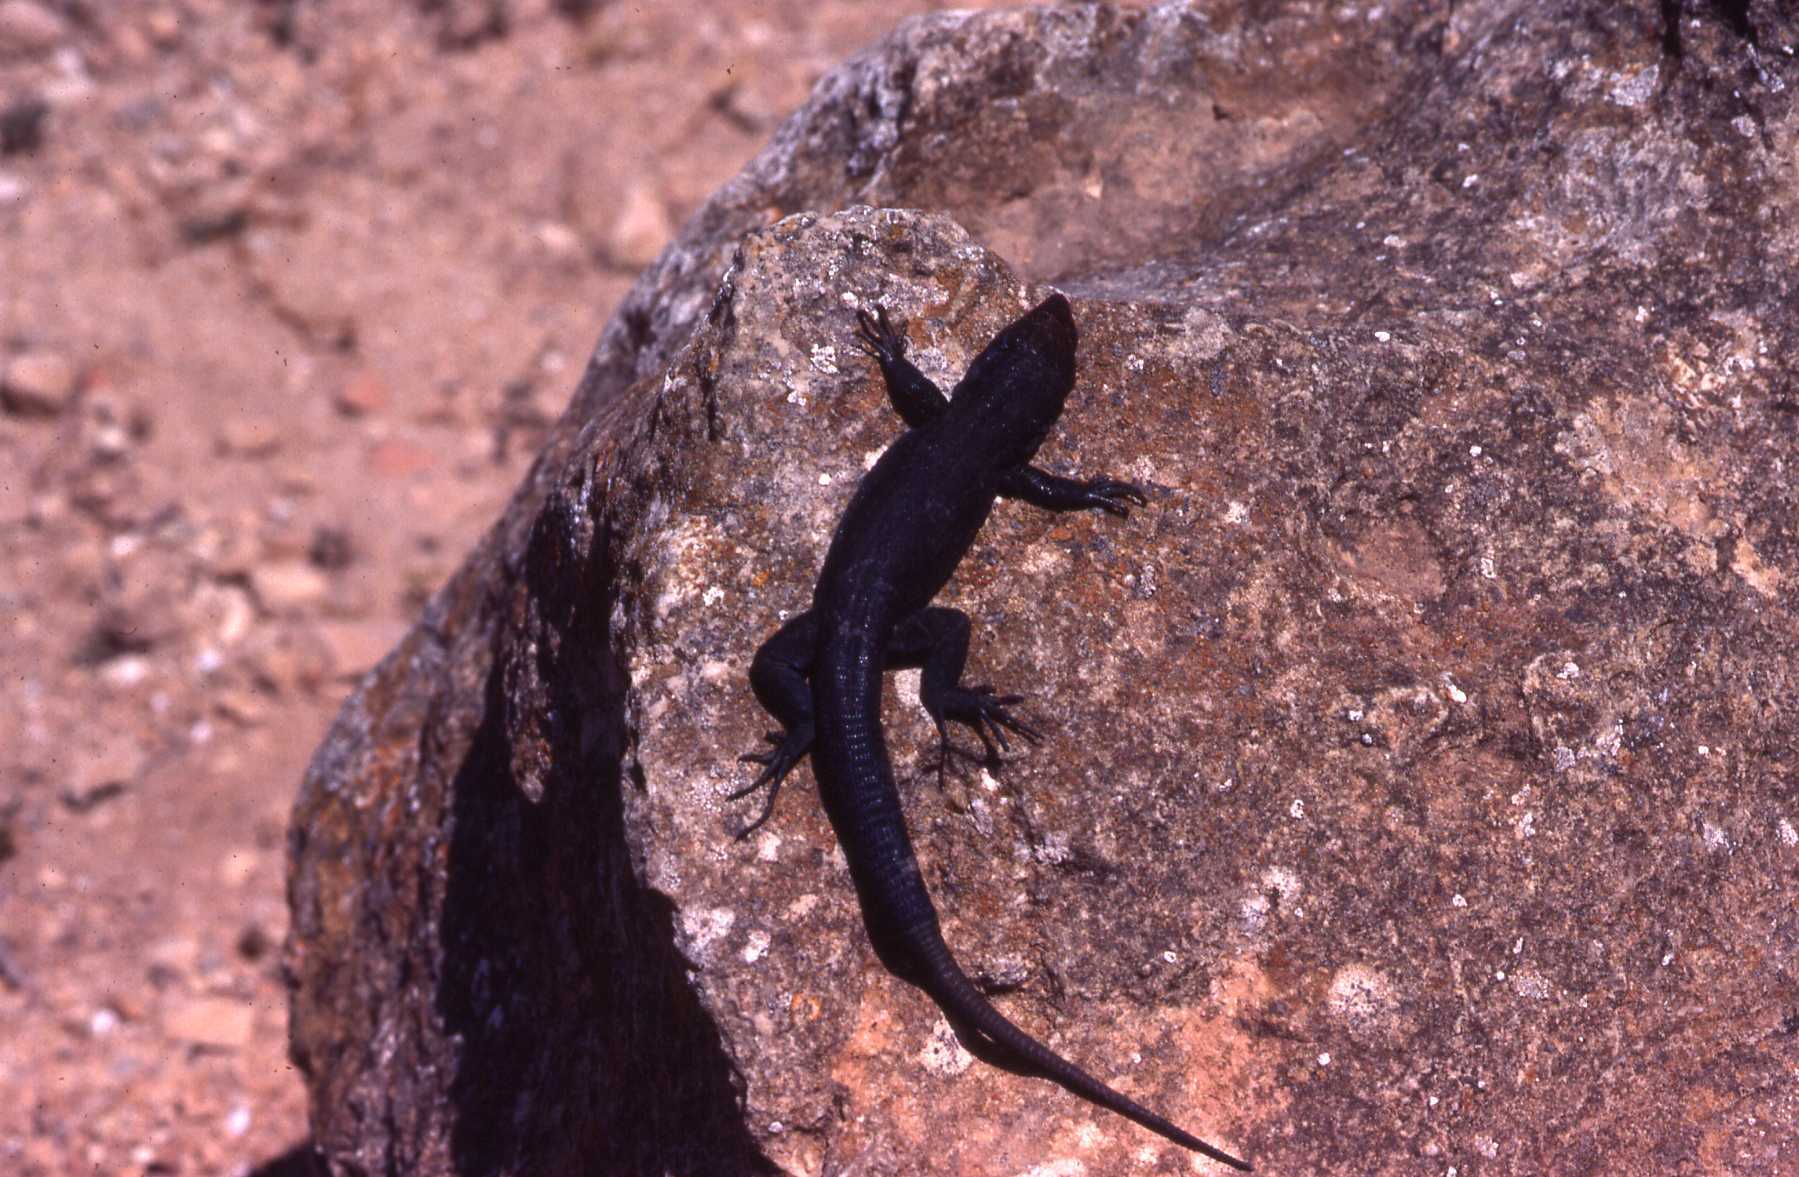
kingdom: Animalia
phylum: Chordata
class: Squamata
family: Lacertidae
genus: Podarcis
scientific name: Podarcis lilfordi
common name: Belearic lizard
